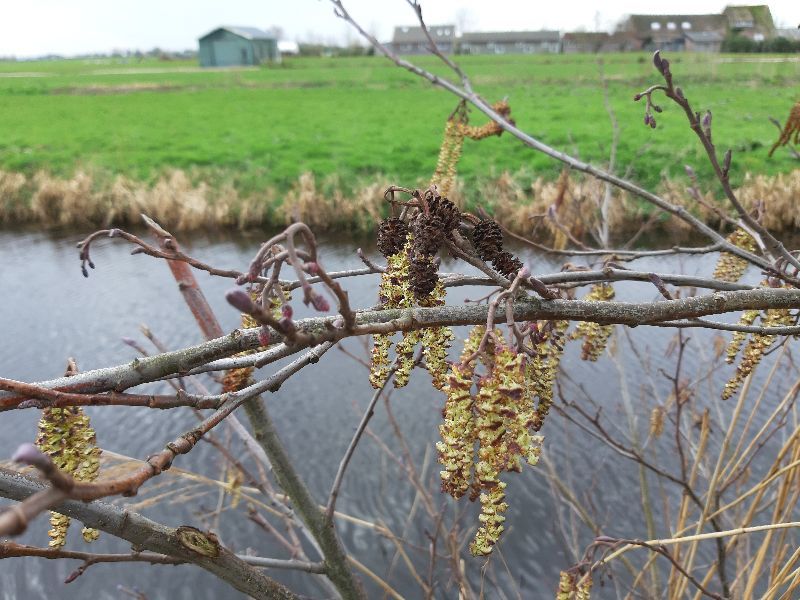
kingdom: Plantae
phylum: Tracheophyta
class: Magnoliopsida
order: Fagales
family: Betulaceae
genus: Alnus
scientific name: Alnus glutinosa
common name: Black alder
